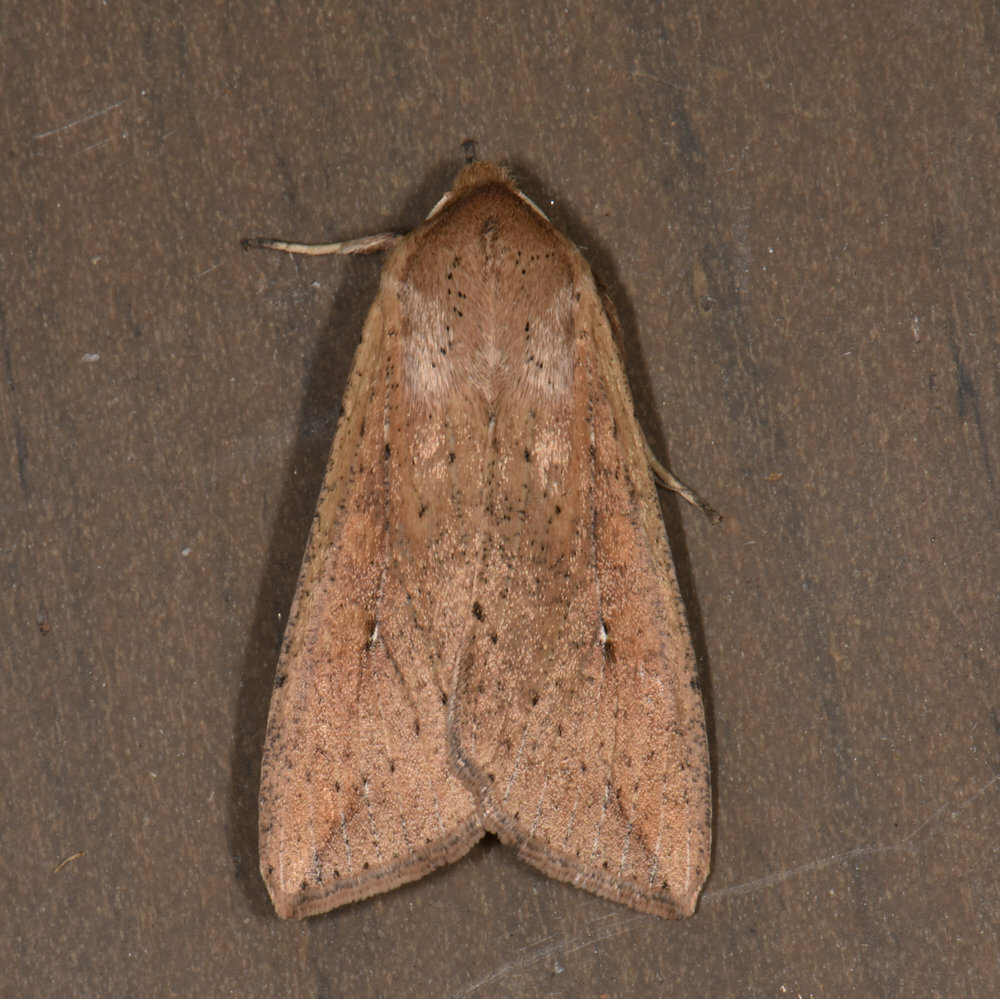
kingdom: Animalia
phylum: Arthropoda
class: Insecta
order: Lepidoptera
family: Noctuidae
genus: Mythimna
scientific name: Mythimna unipuncta
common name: White-speck
